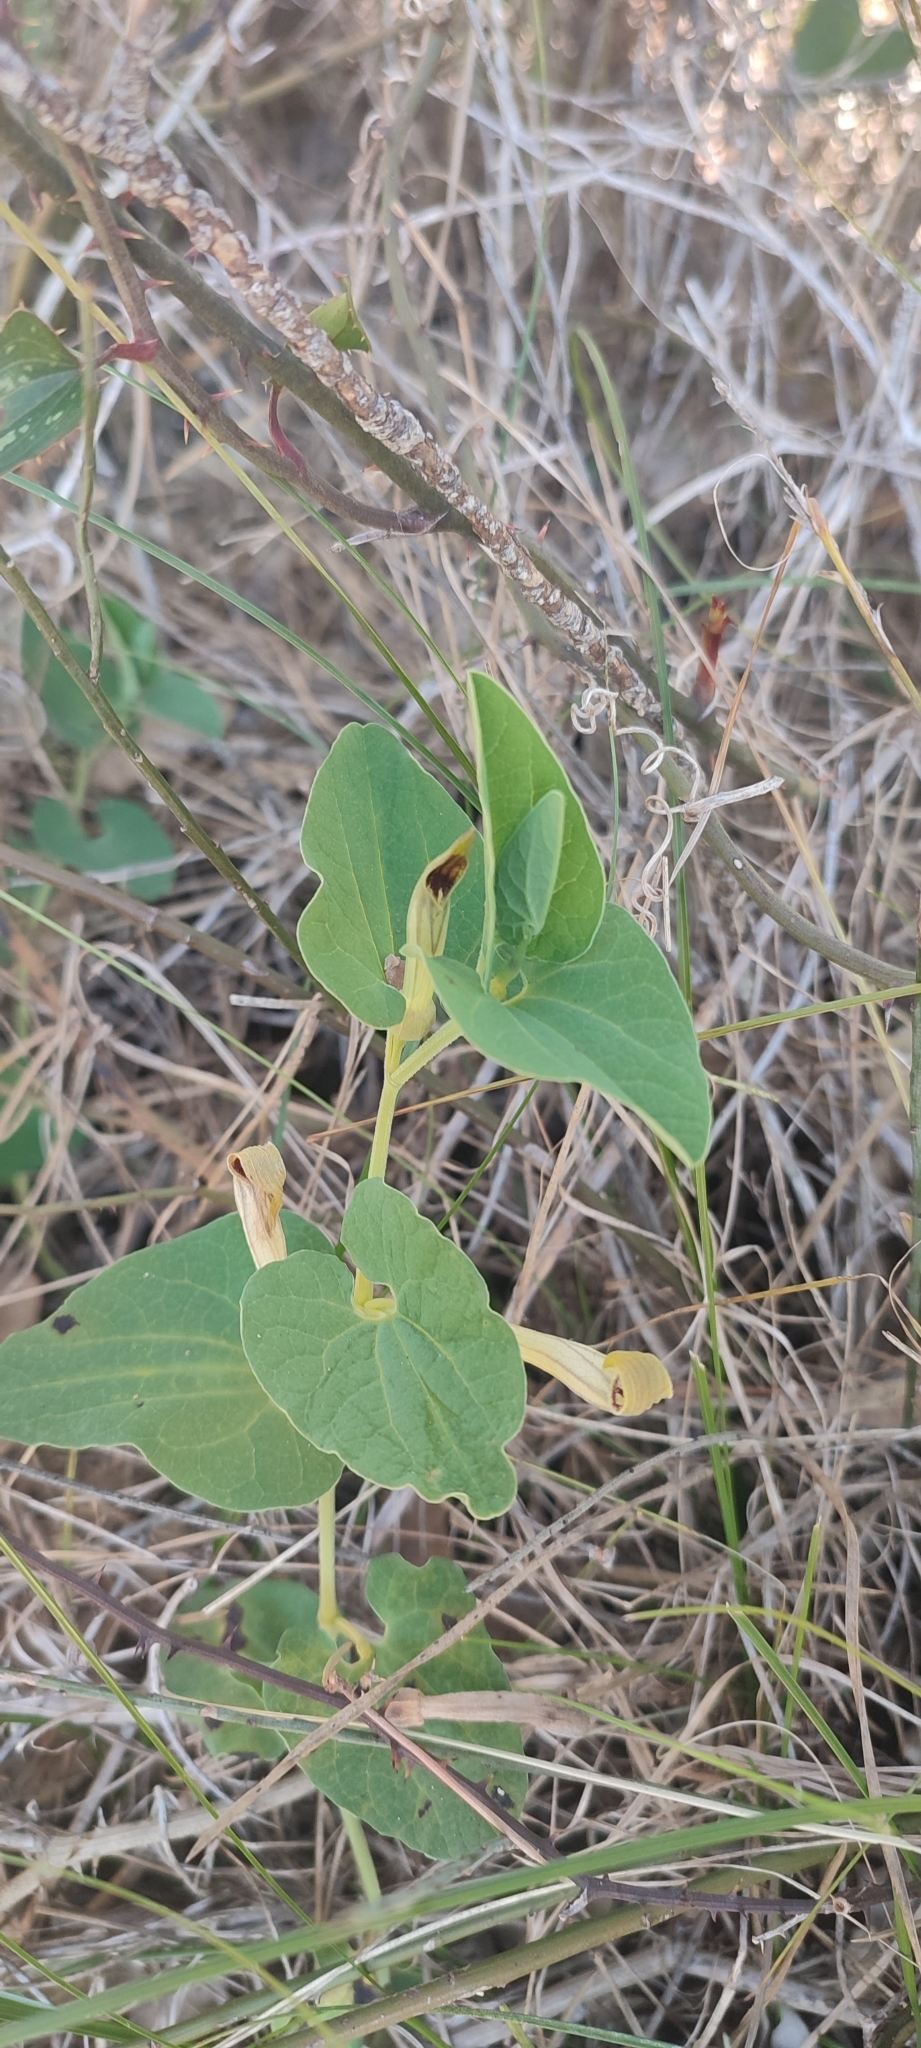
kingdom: Plantae
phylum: Tracheophyta
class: Magnoliopsida
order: Piperales
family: Aristolochiaceae
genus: Aristolochia
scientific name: Aristolochia paucinervis
